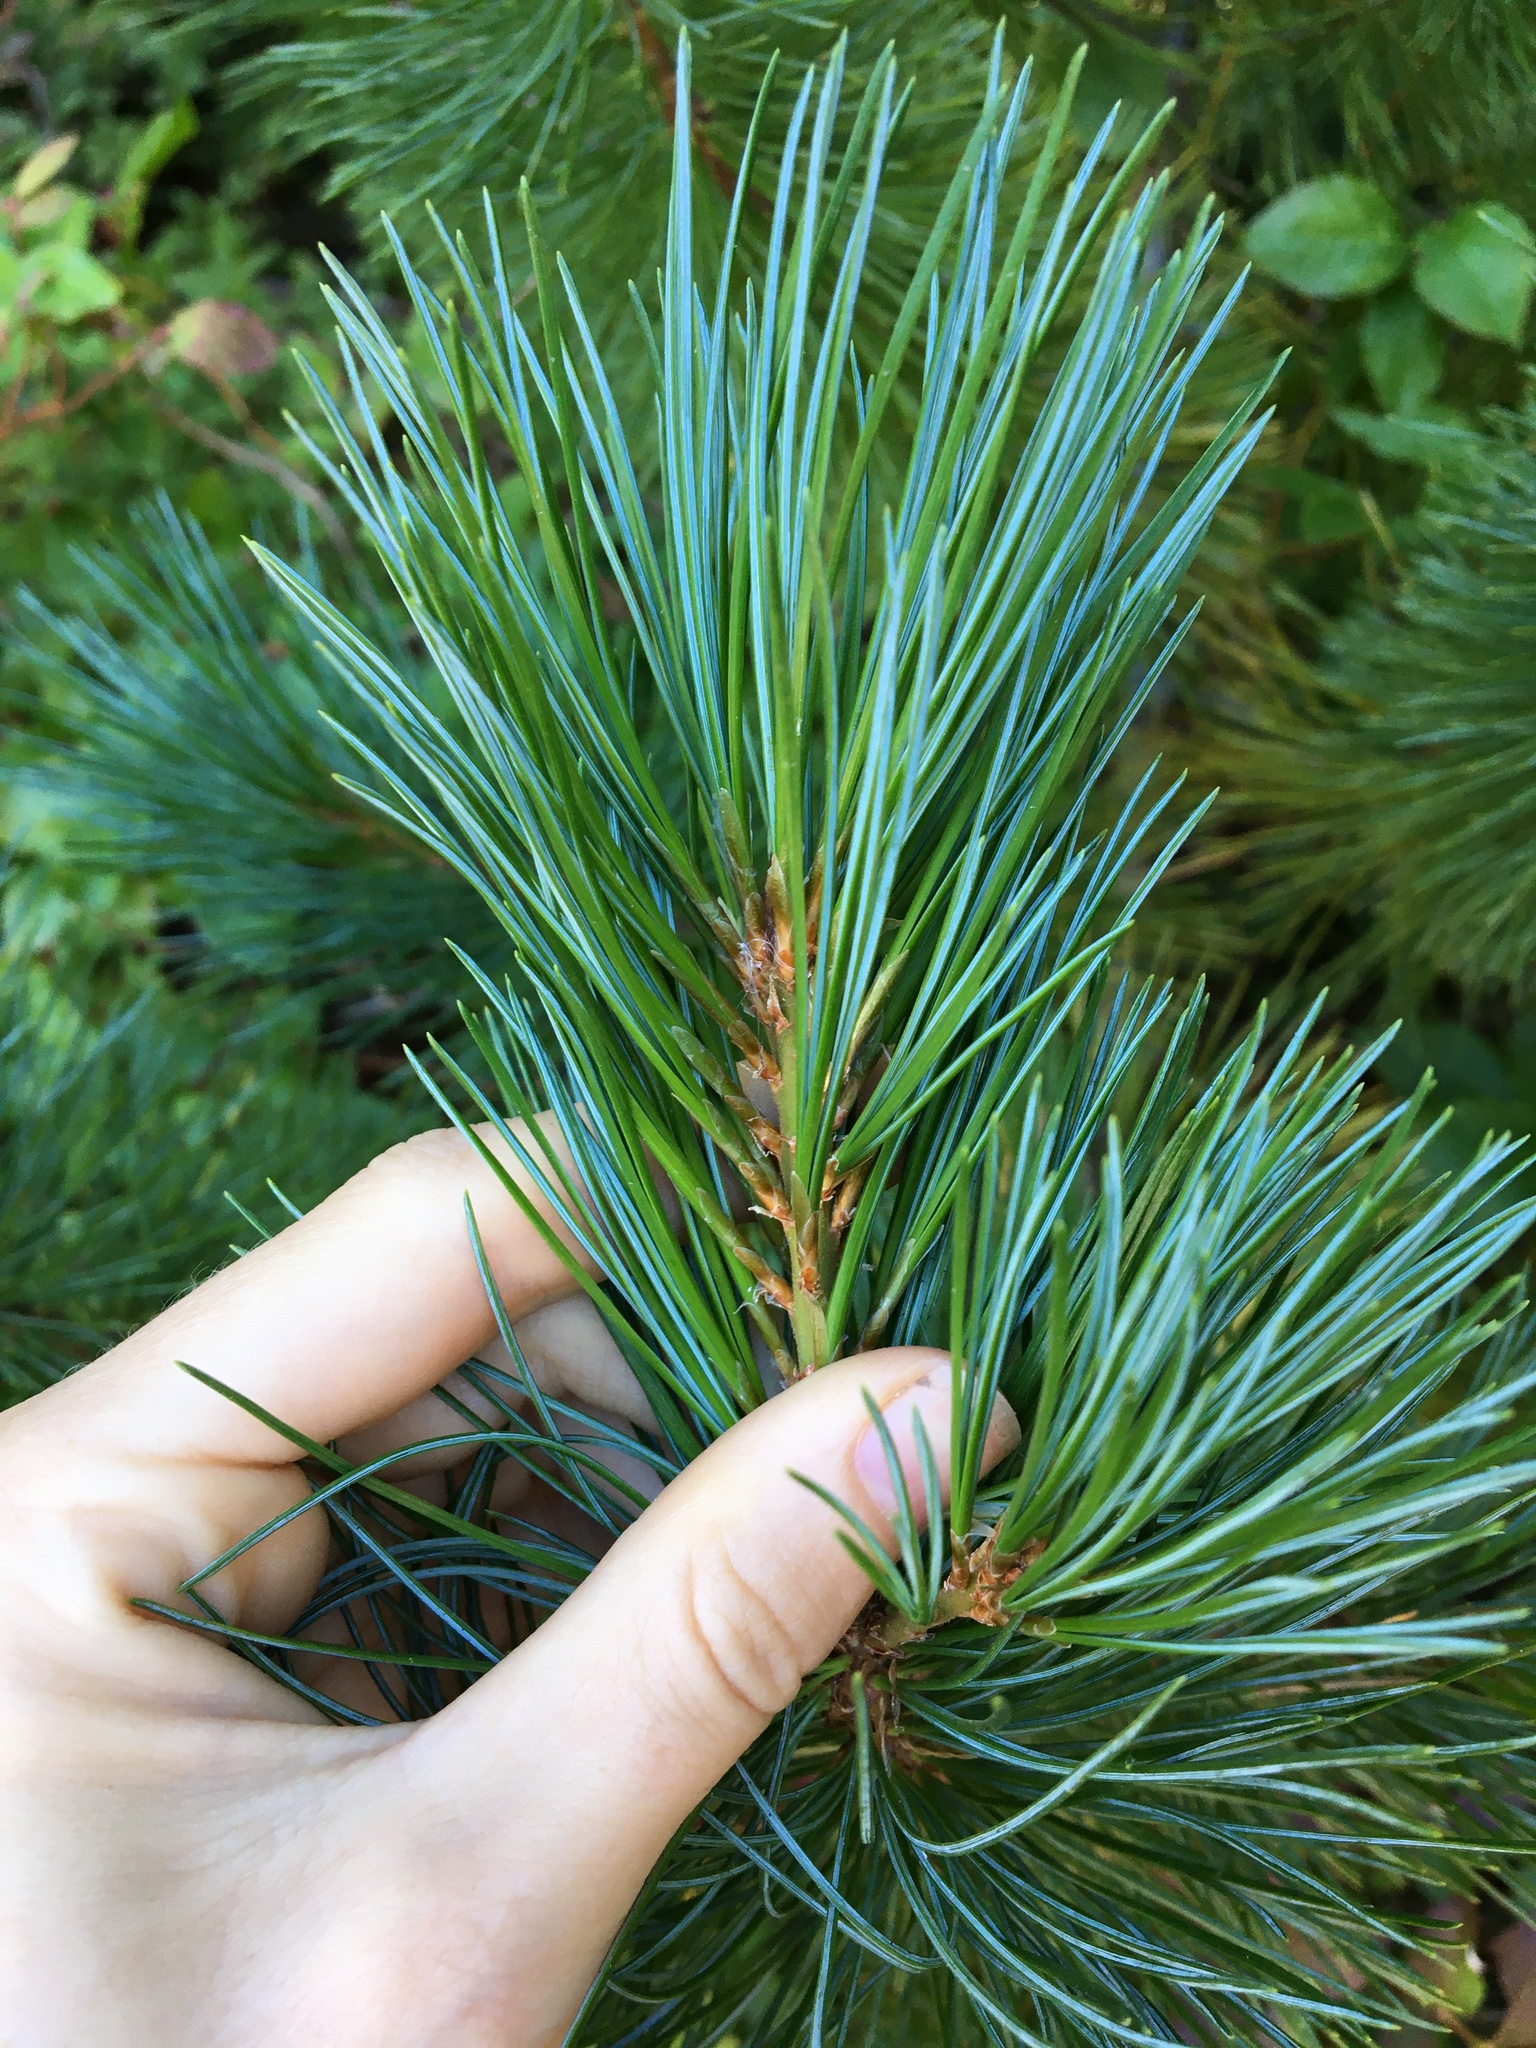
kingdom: Plantae
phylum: Tracheophyta
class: Pinopsida
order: Pinales
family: Pinaceae
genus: Pinus
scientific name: Pinus monticola
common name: Western white pine
